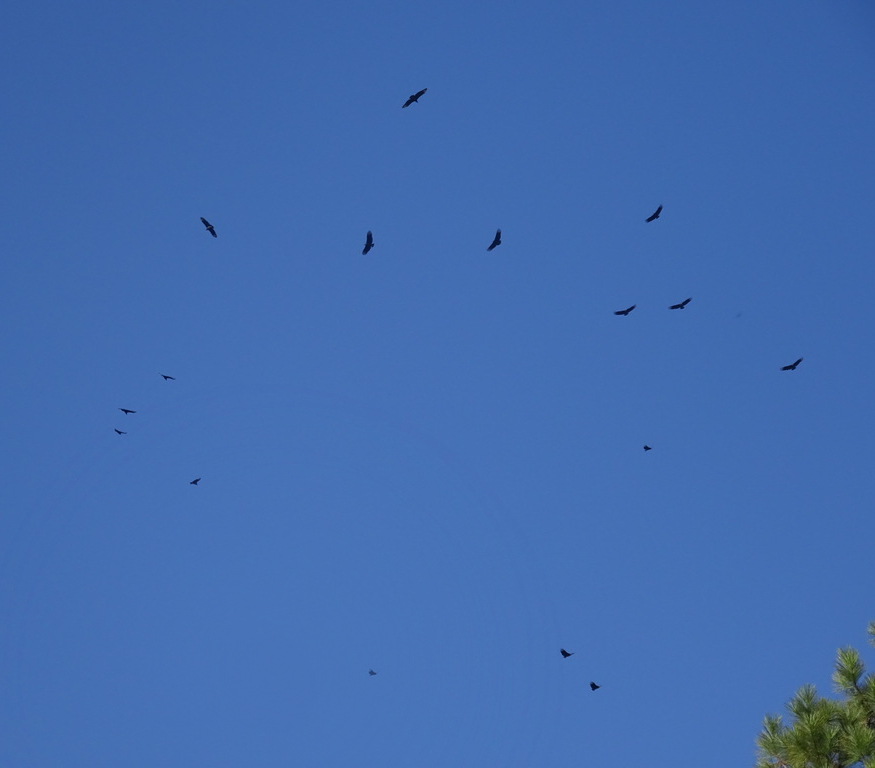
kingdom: Animalia
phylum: Chordata
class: Aves
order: Accipitriformes
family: Cathartidae
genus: Cathartes
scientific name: Cathartes aura
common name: Turkey vulture
